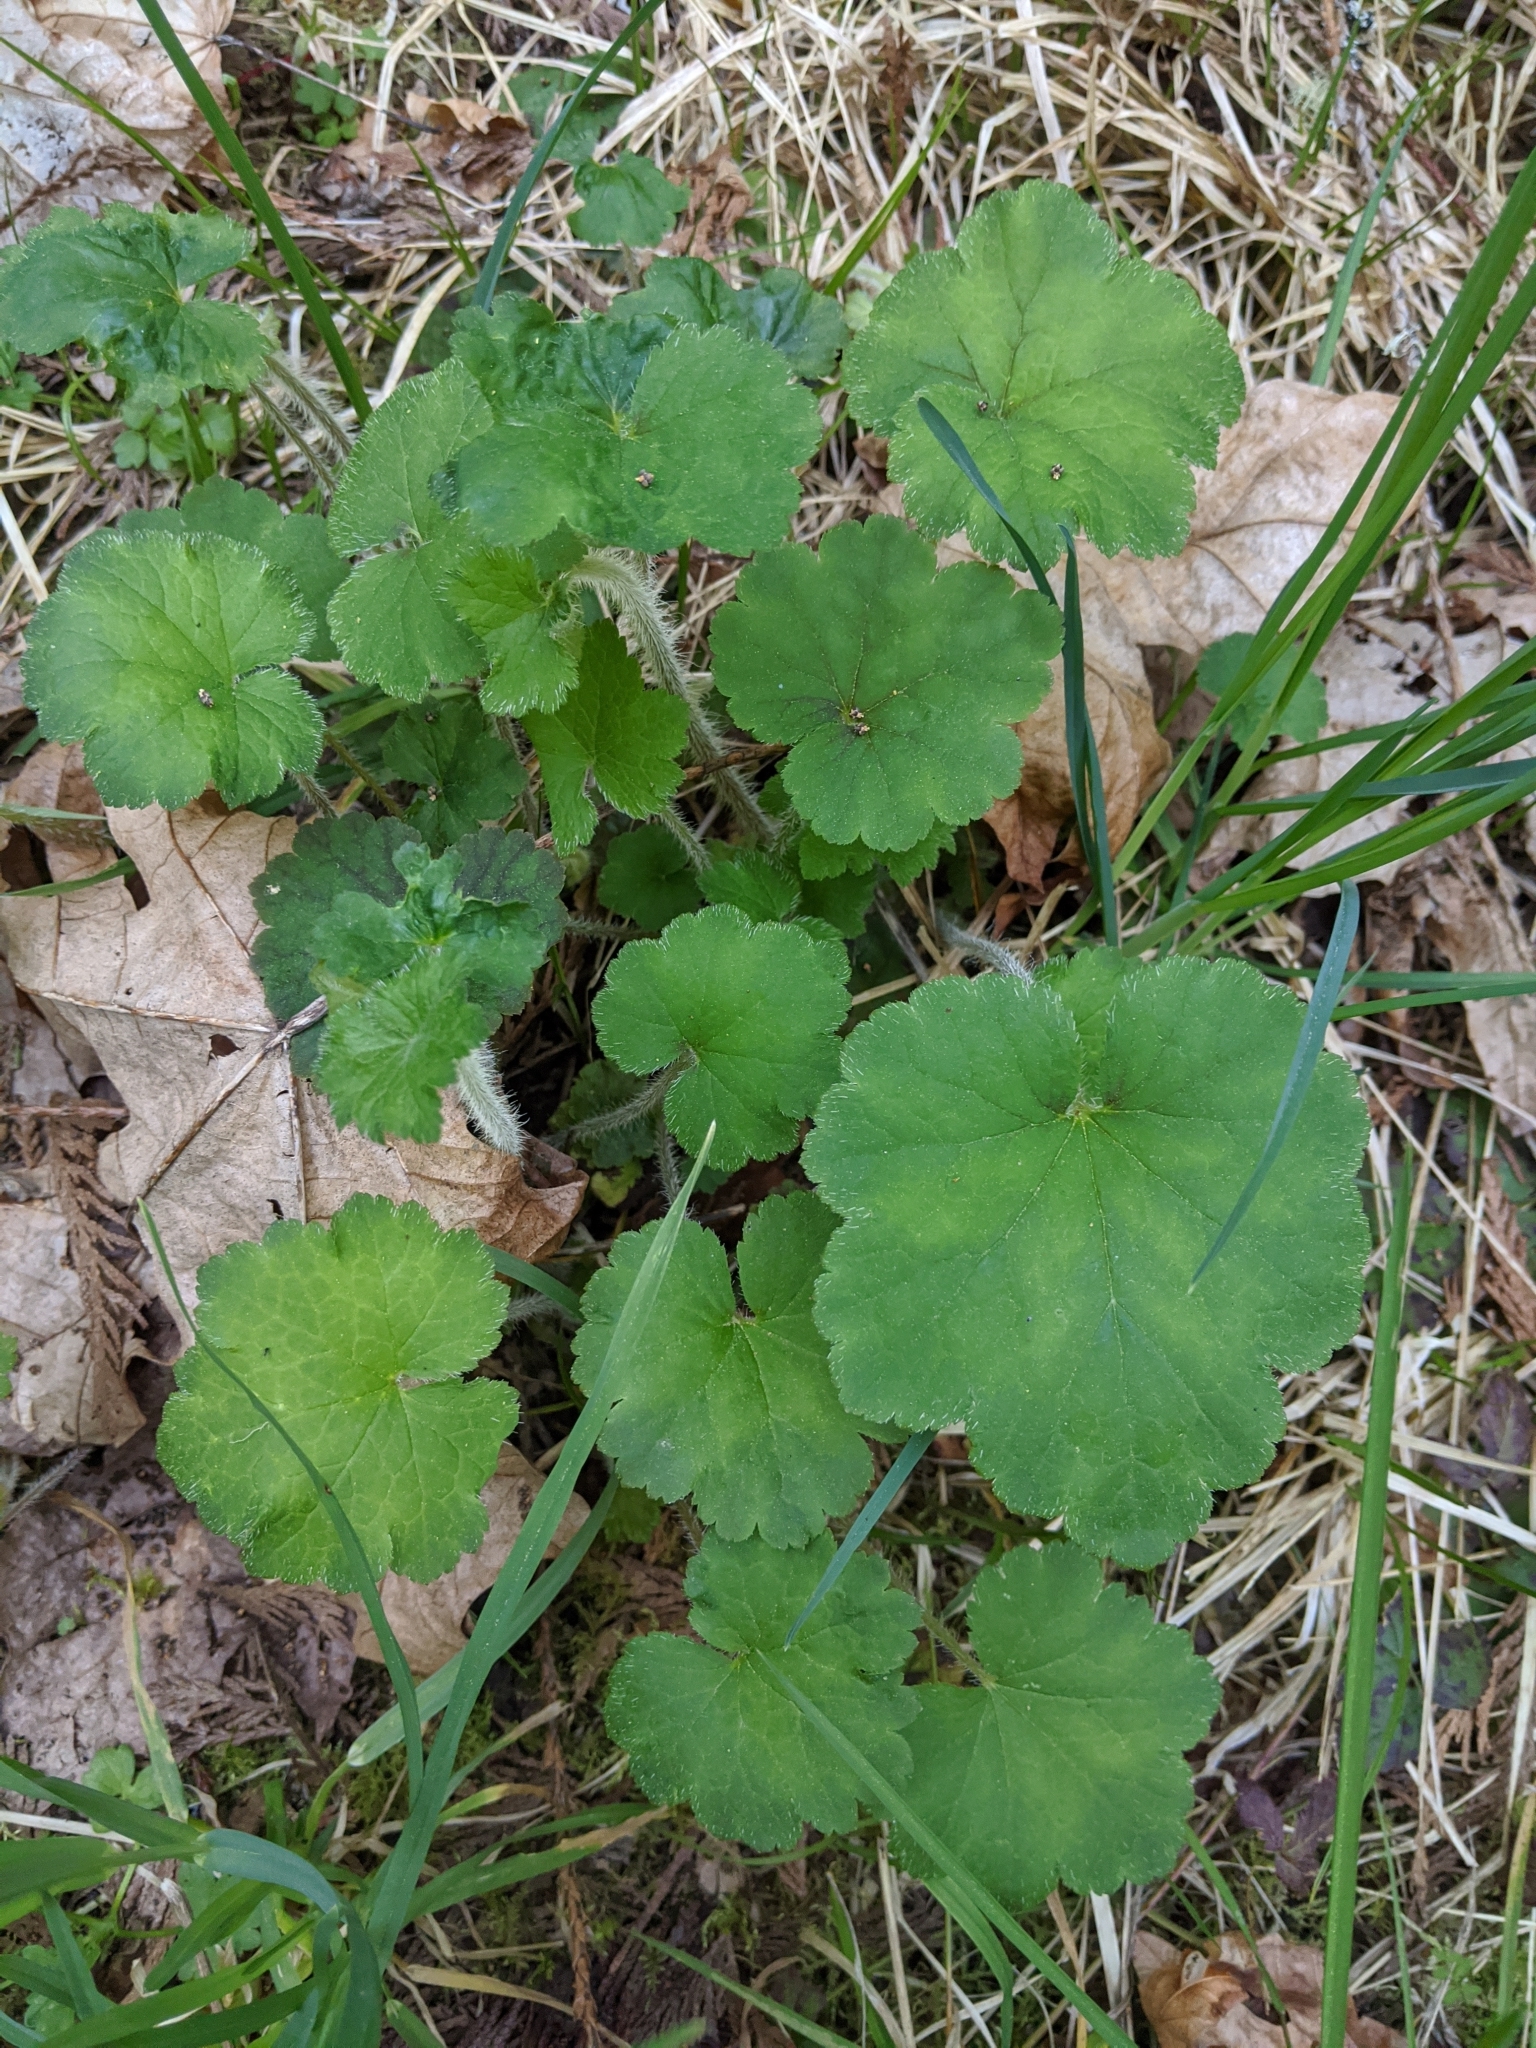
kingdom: Plantae
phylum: Tracheophyta
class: Magnoliopsida
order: Saxifragales
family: Saxifragaceae
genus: Tellima
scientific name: Tellima grandiflora
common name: Fringecups
